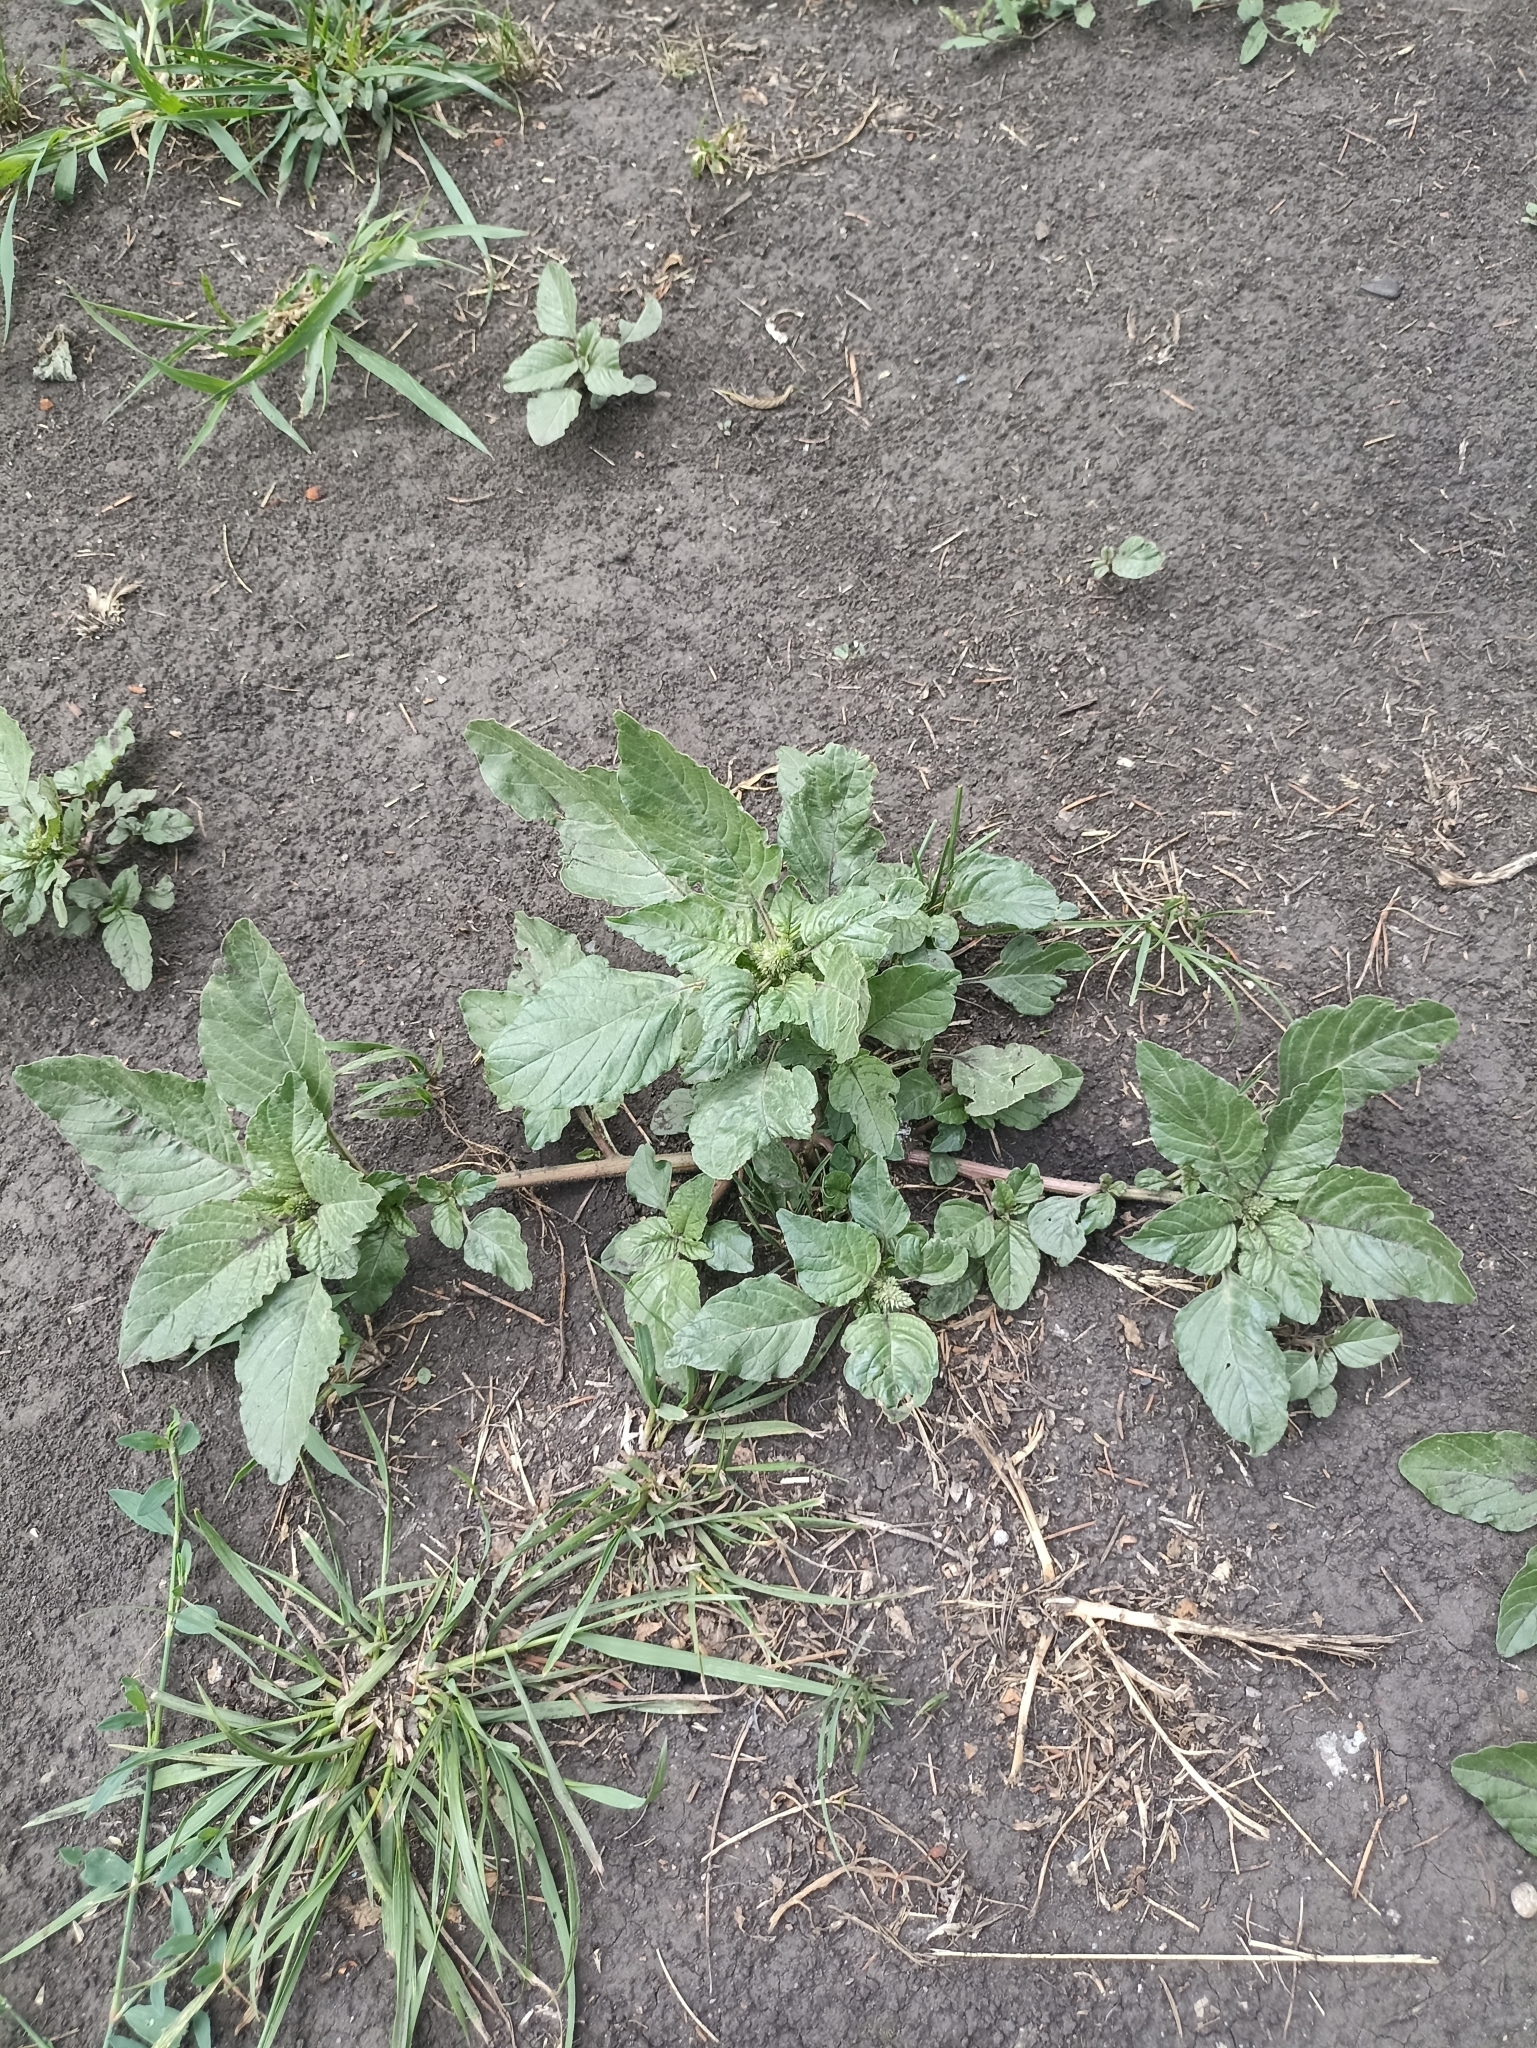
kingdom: Plantae
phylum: Tracheophyta
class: Magnoliopsida
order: Caryophyllales
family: Amaranthaceae
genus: Amaranthus
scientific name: Amaranthus retroflexus
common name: Redroot amaranth
